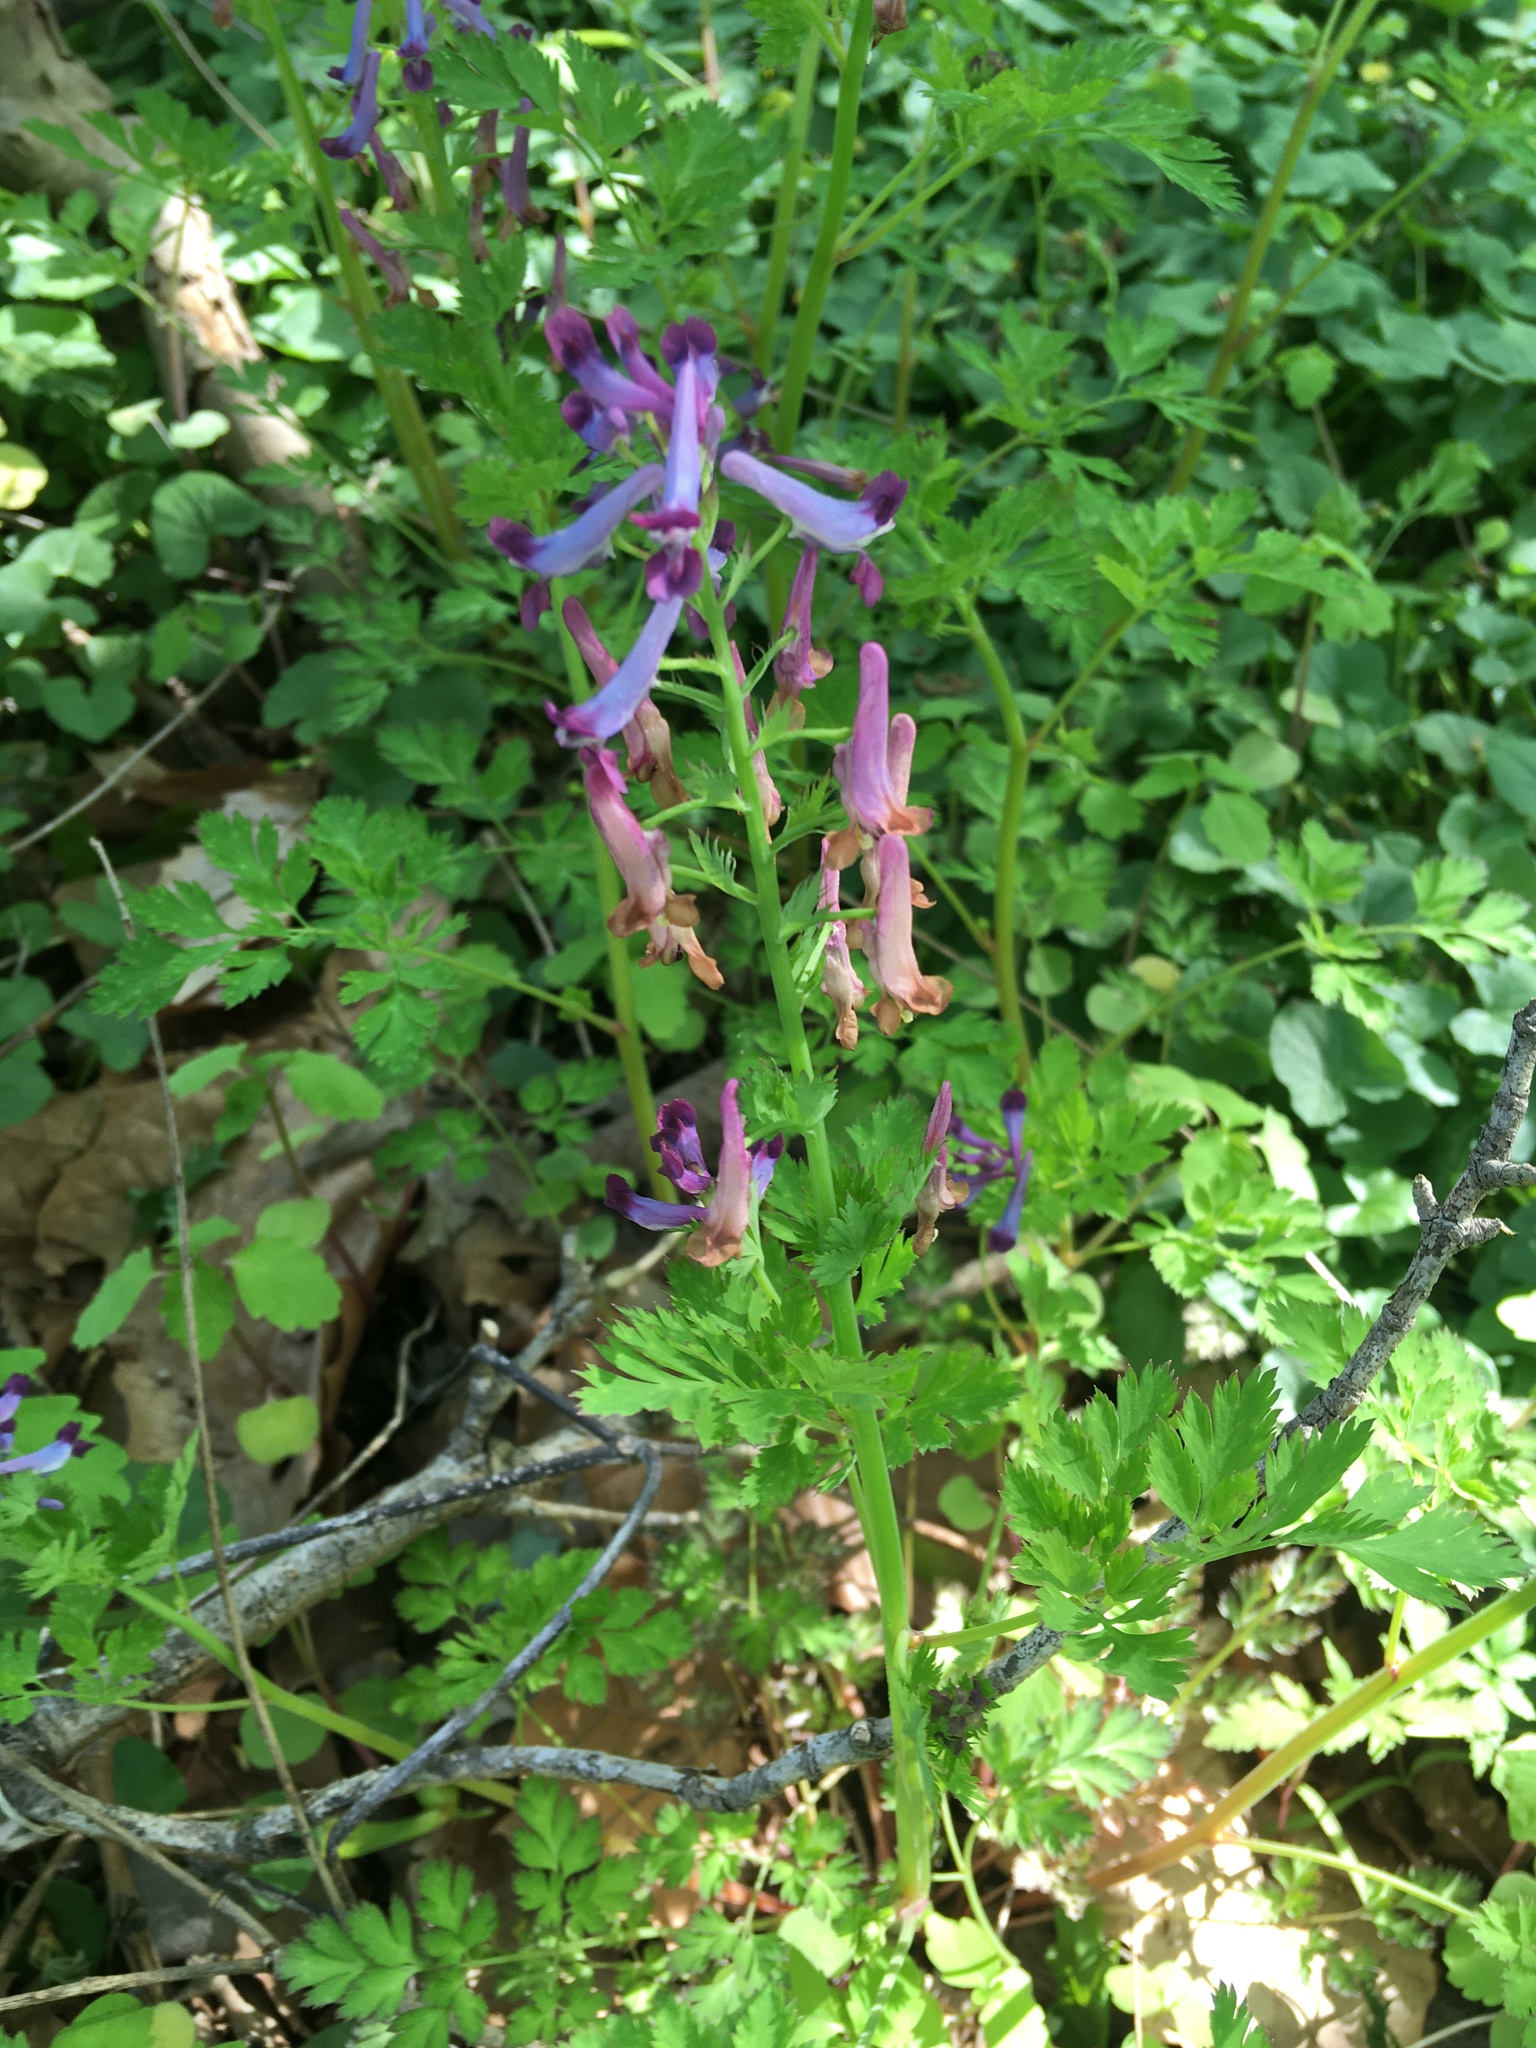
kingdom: Plantae
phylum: Tracheophyta
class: Magnoliopsida
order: Ranunculales
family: Papaveraceae
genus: Corydalis
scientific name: Corydalis incisa
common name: Incised fumewort
